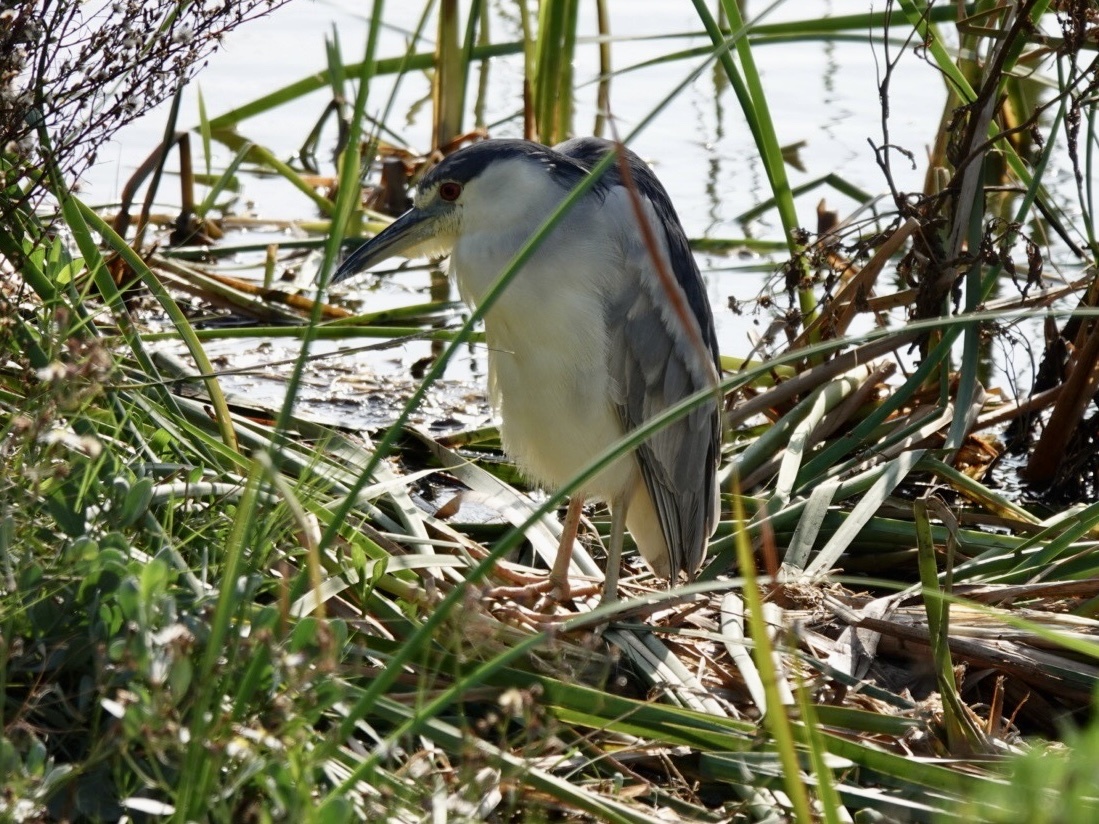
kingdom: Animalia
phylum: Chordata
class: Aves
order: Pelecaniformes
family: Ardeidae
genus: Nycticorax
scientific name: Nycticorax nycticorax
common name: Black-crowned night heron
